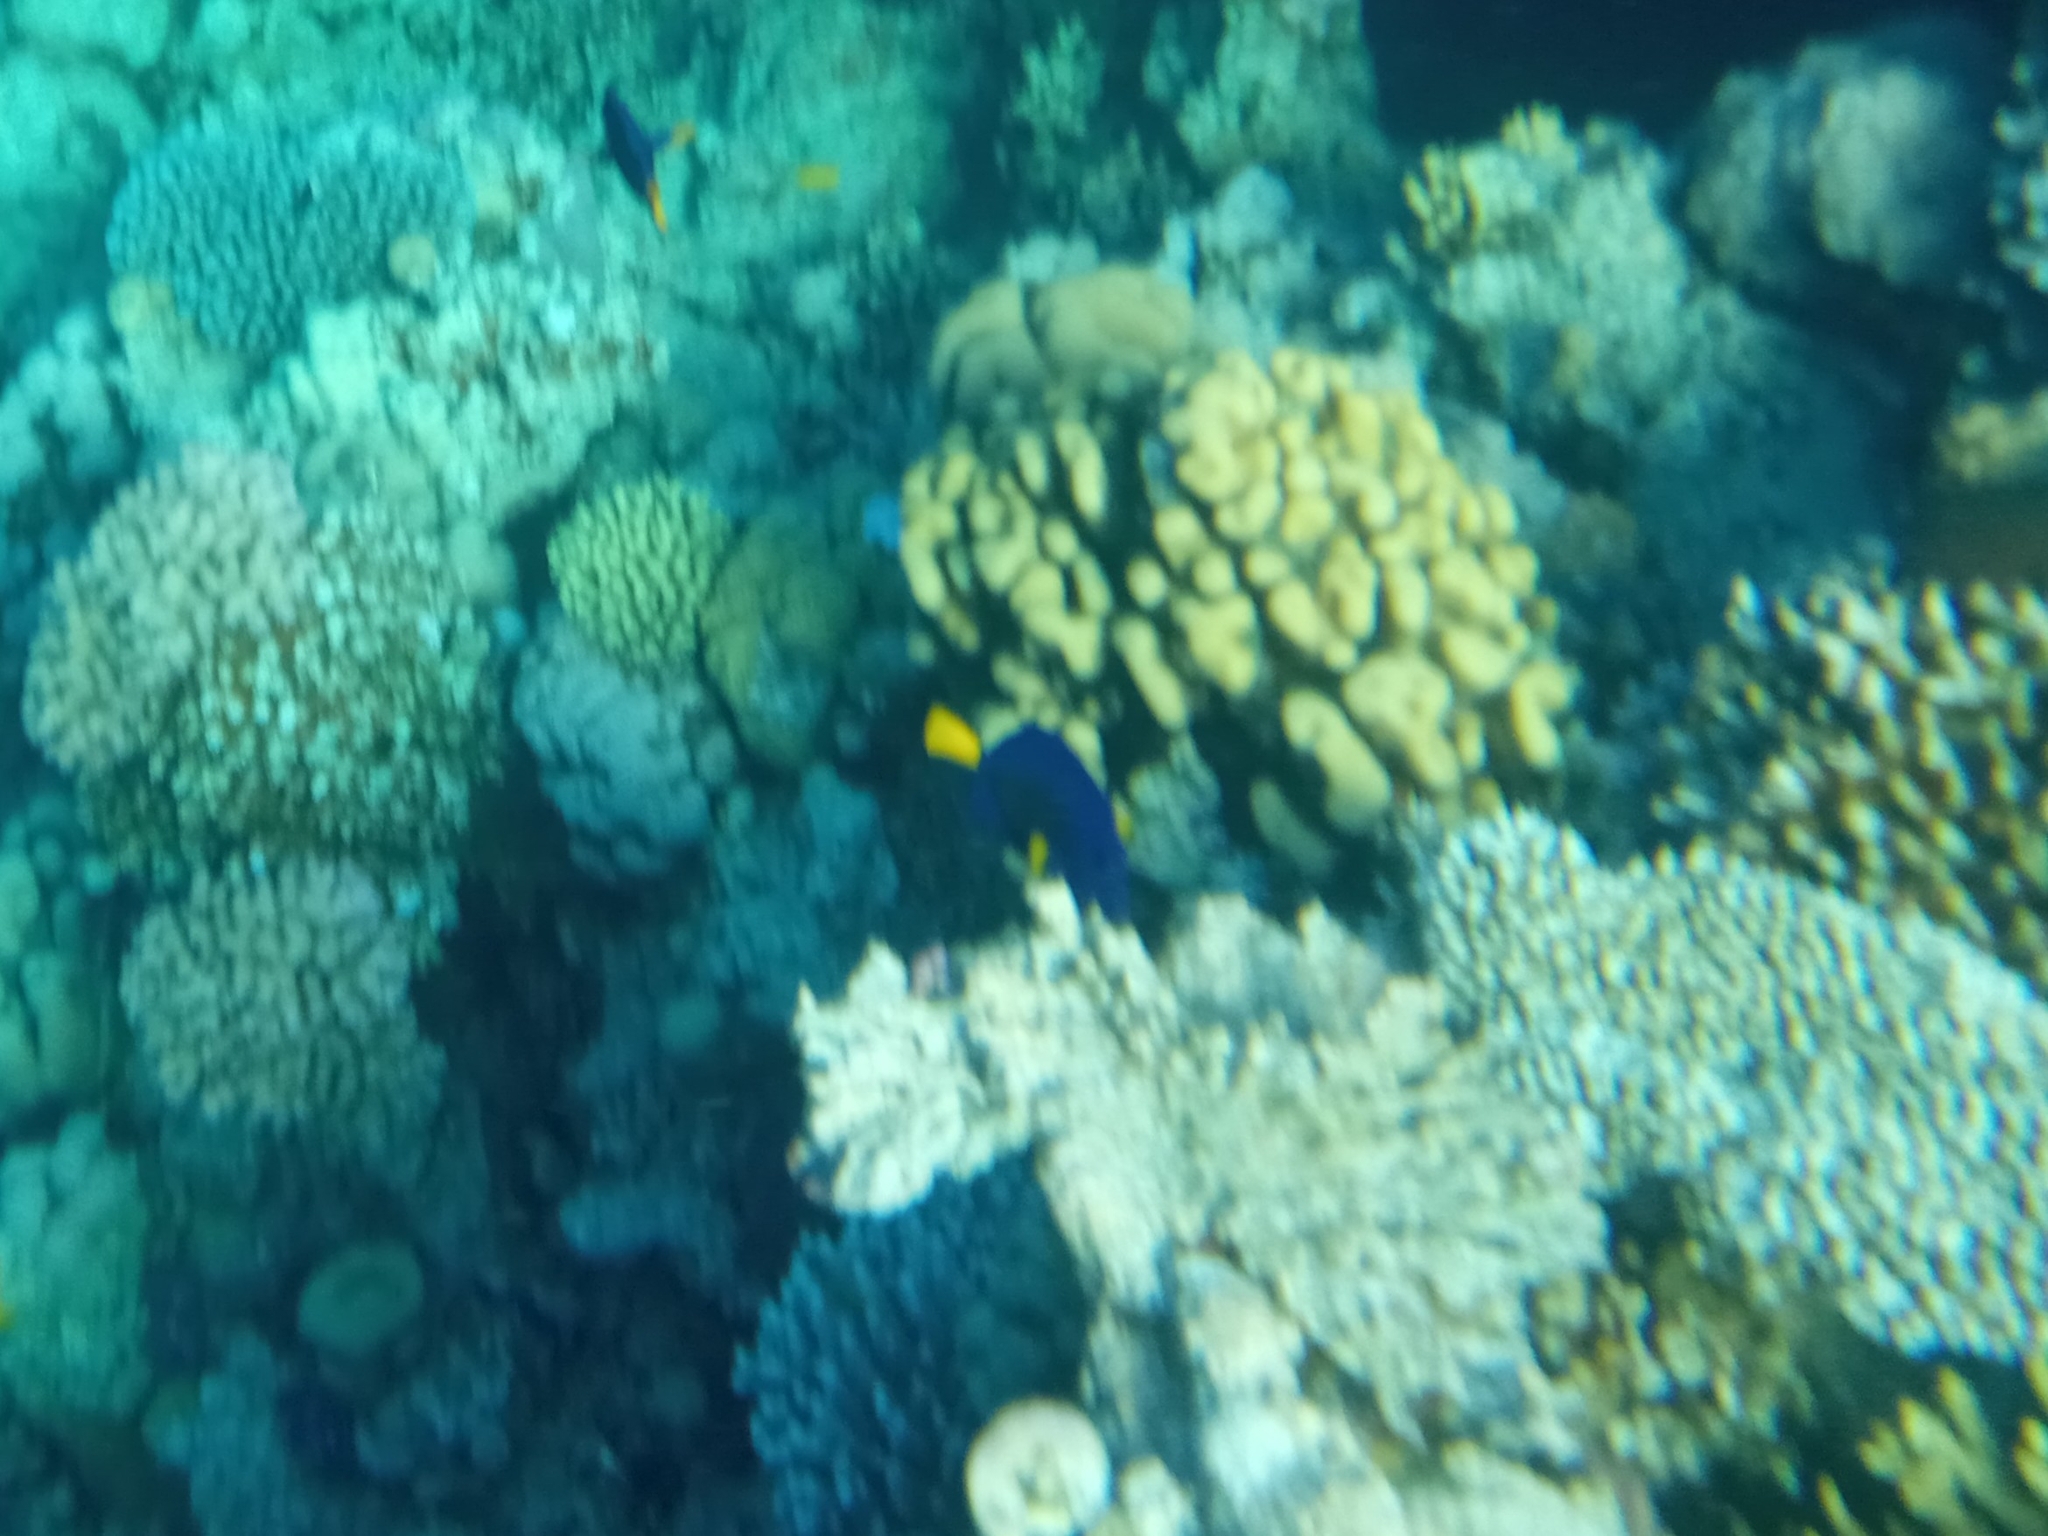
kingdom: Animalia
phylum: Chordata
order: Perciformes
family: Acanthuridae
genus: Zebrasoma
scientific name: Zebrasoma xanthurum
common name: Purple tang
